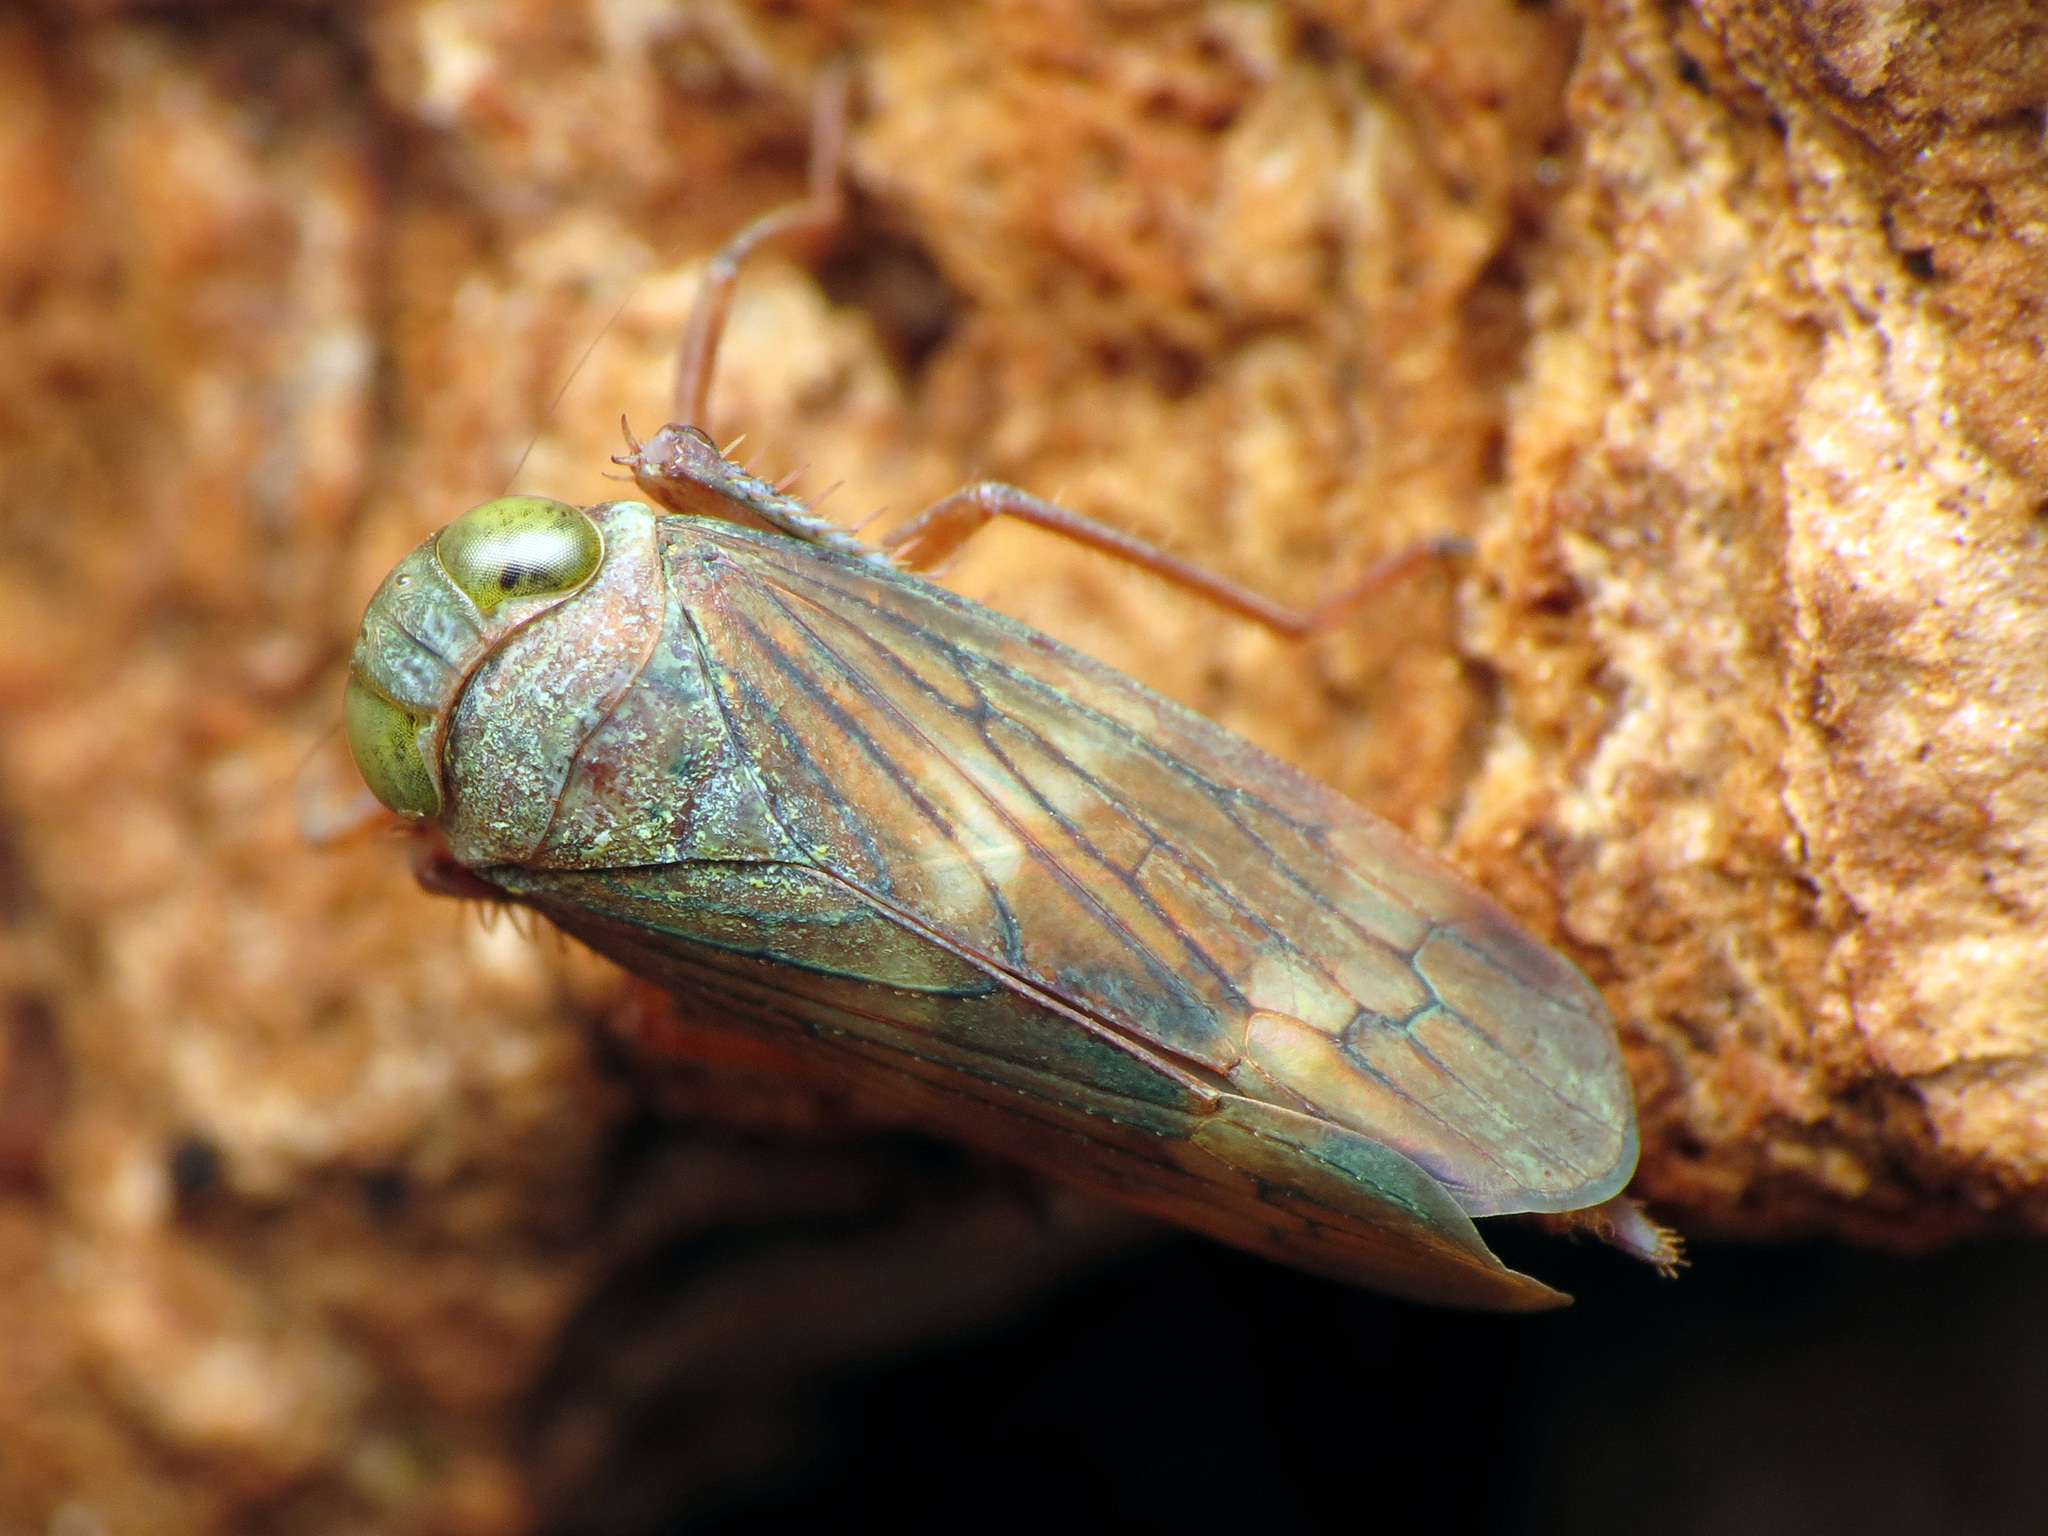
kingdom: Animalia
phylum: Arthropoda
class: Insecta
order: Hemiptera
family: Cicadellidae
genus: Jikradia
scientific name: Jikradia olitoria
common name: Coppery leafhopper
